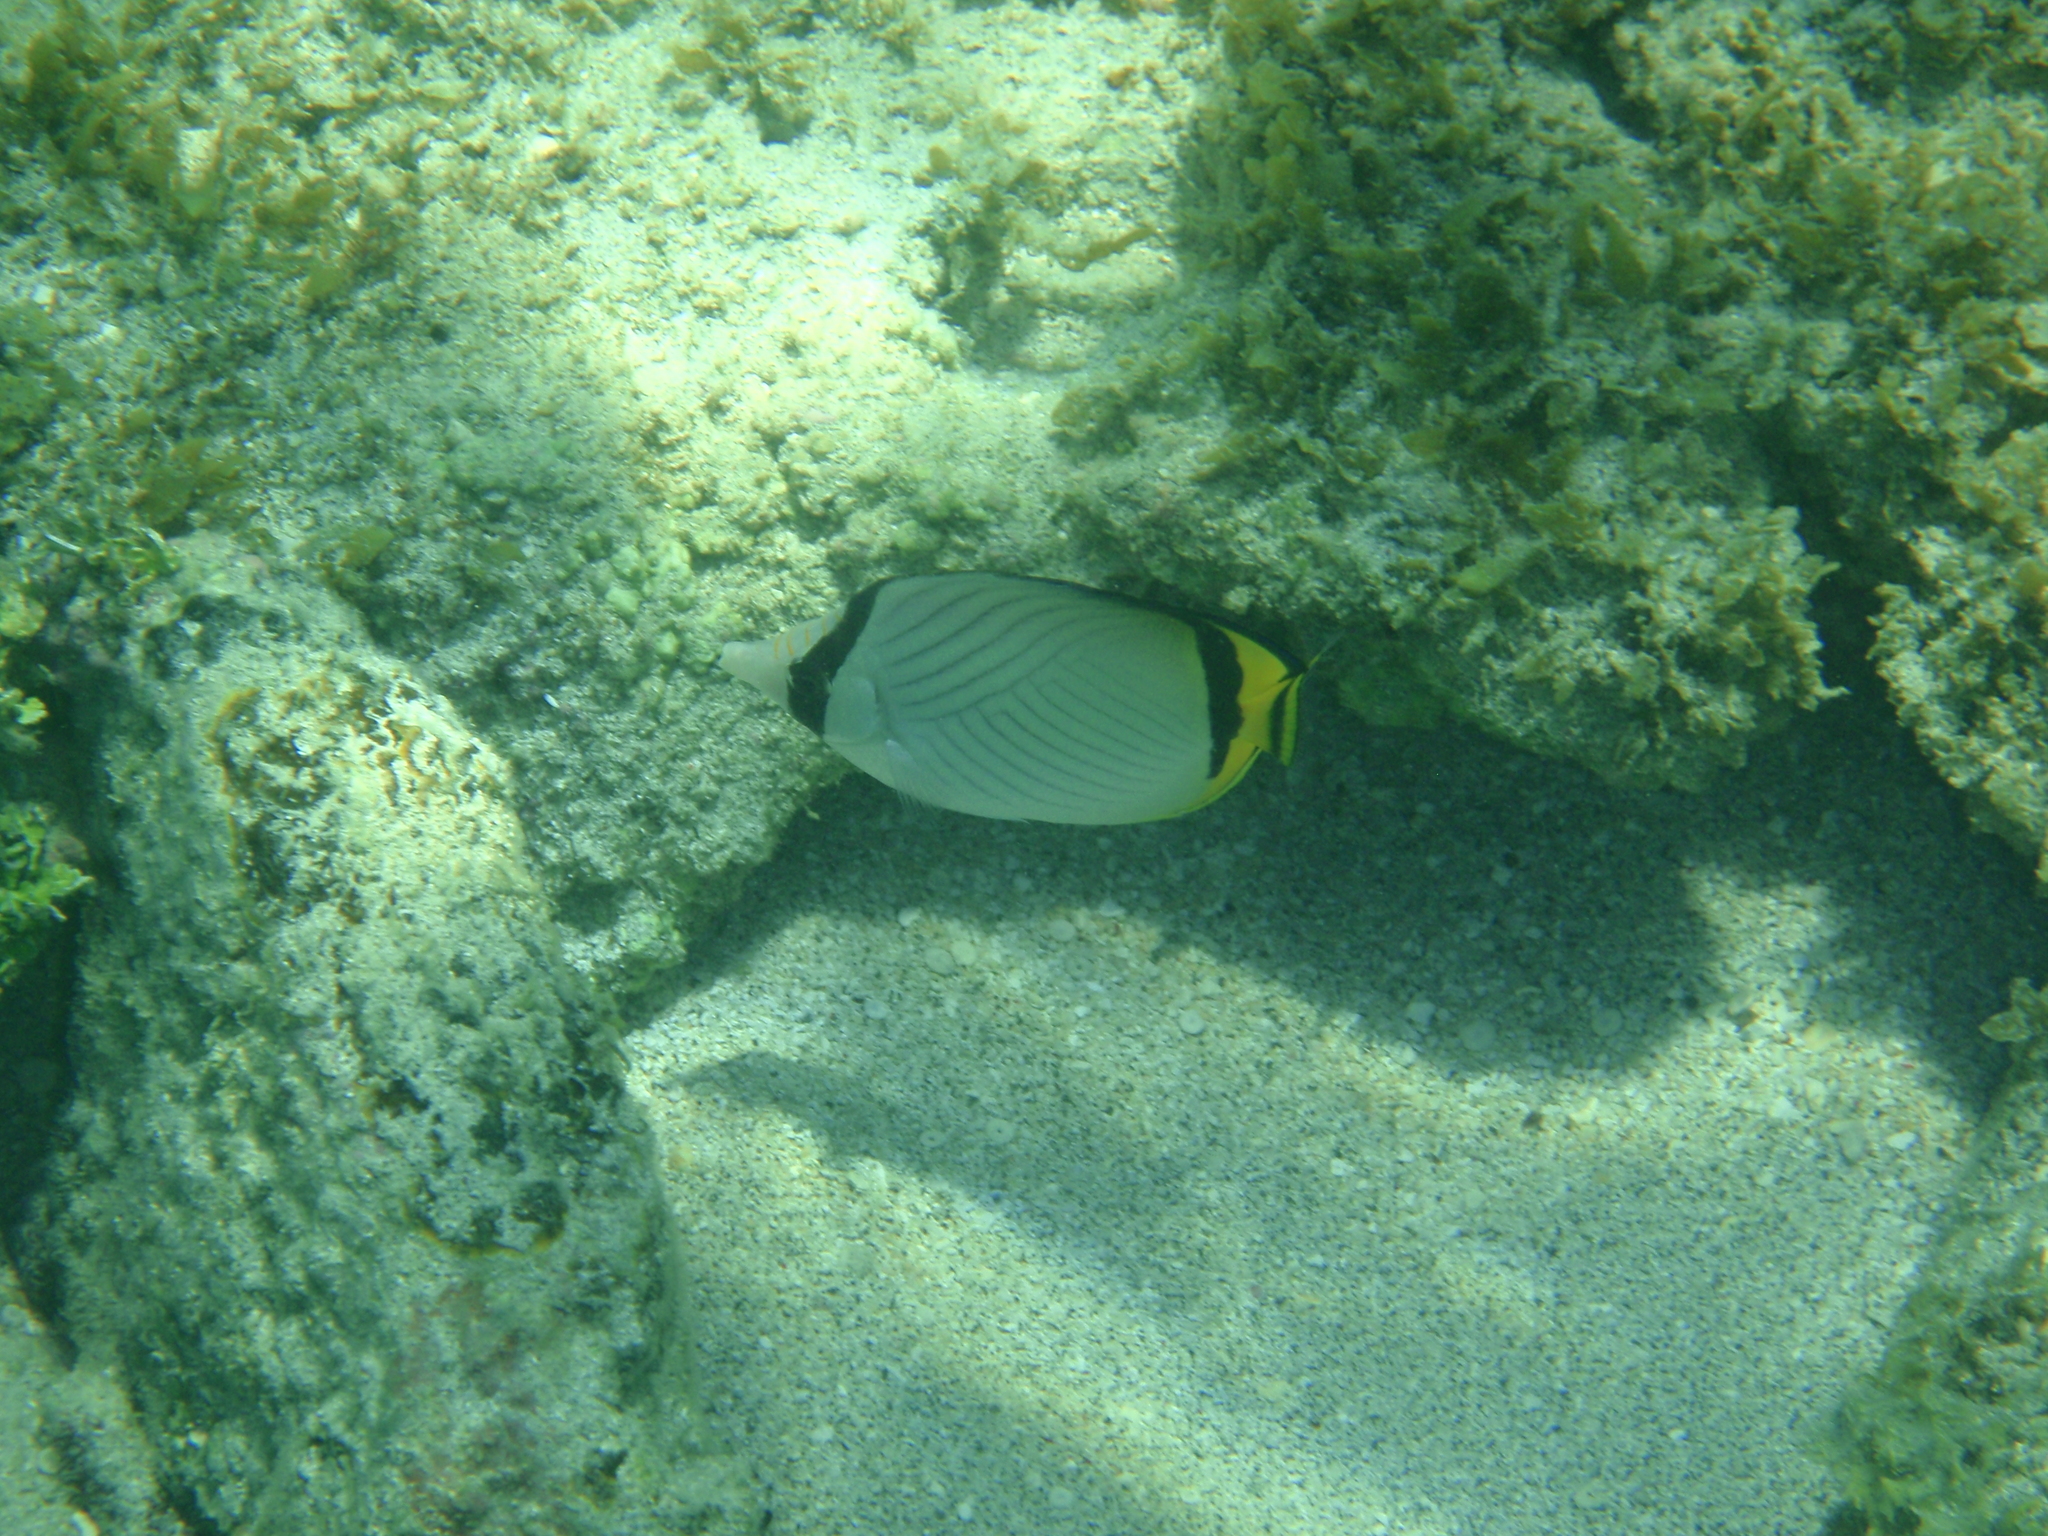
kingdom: Animalia
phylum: Chordata
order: Perciformes
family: Chaetodontidae
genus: Chaetodon
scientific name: Chaetodon vagabundus
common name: Vagabond butterflyfish
